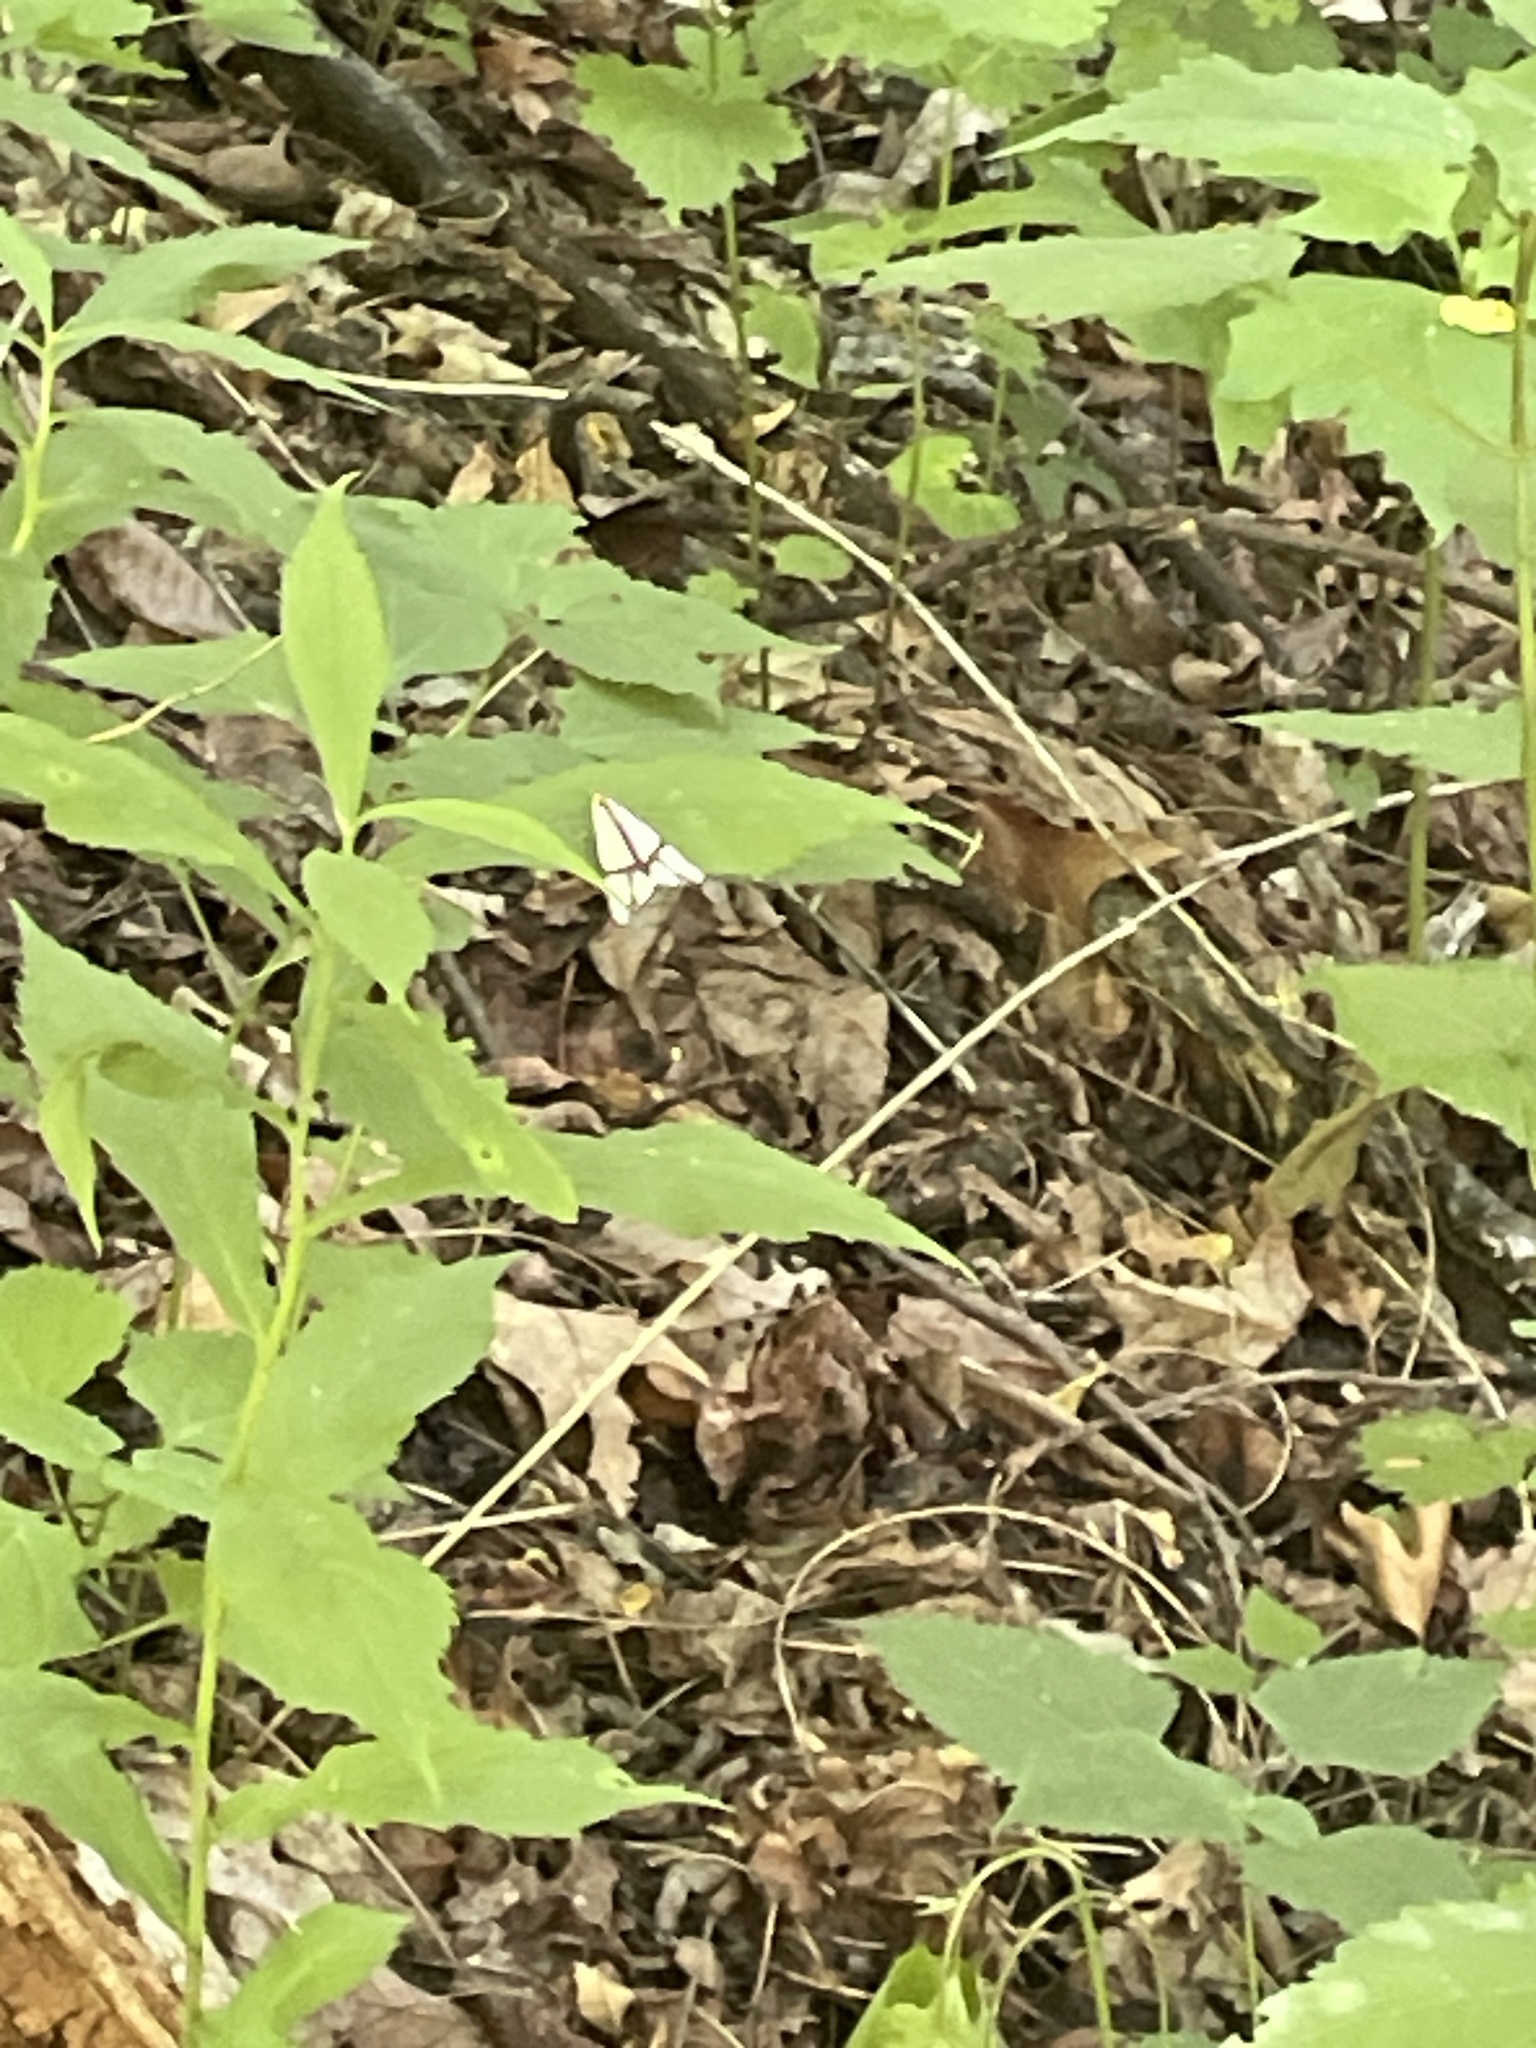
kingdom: Animalia
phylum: Arthropoda
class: Insecta
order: Lepidoptera
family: Erebidae
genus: Haploa
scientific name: Haploa contigua
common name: Neighbor moth
